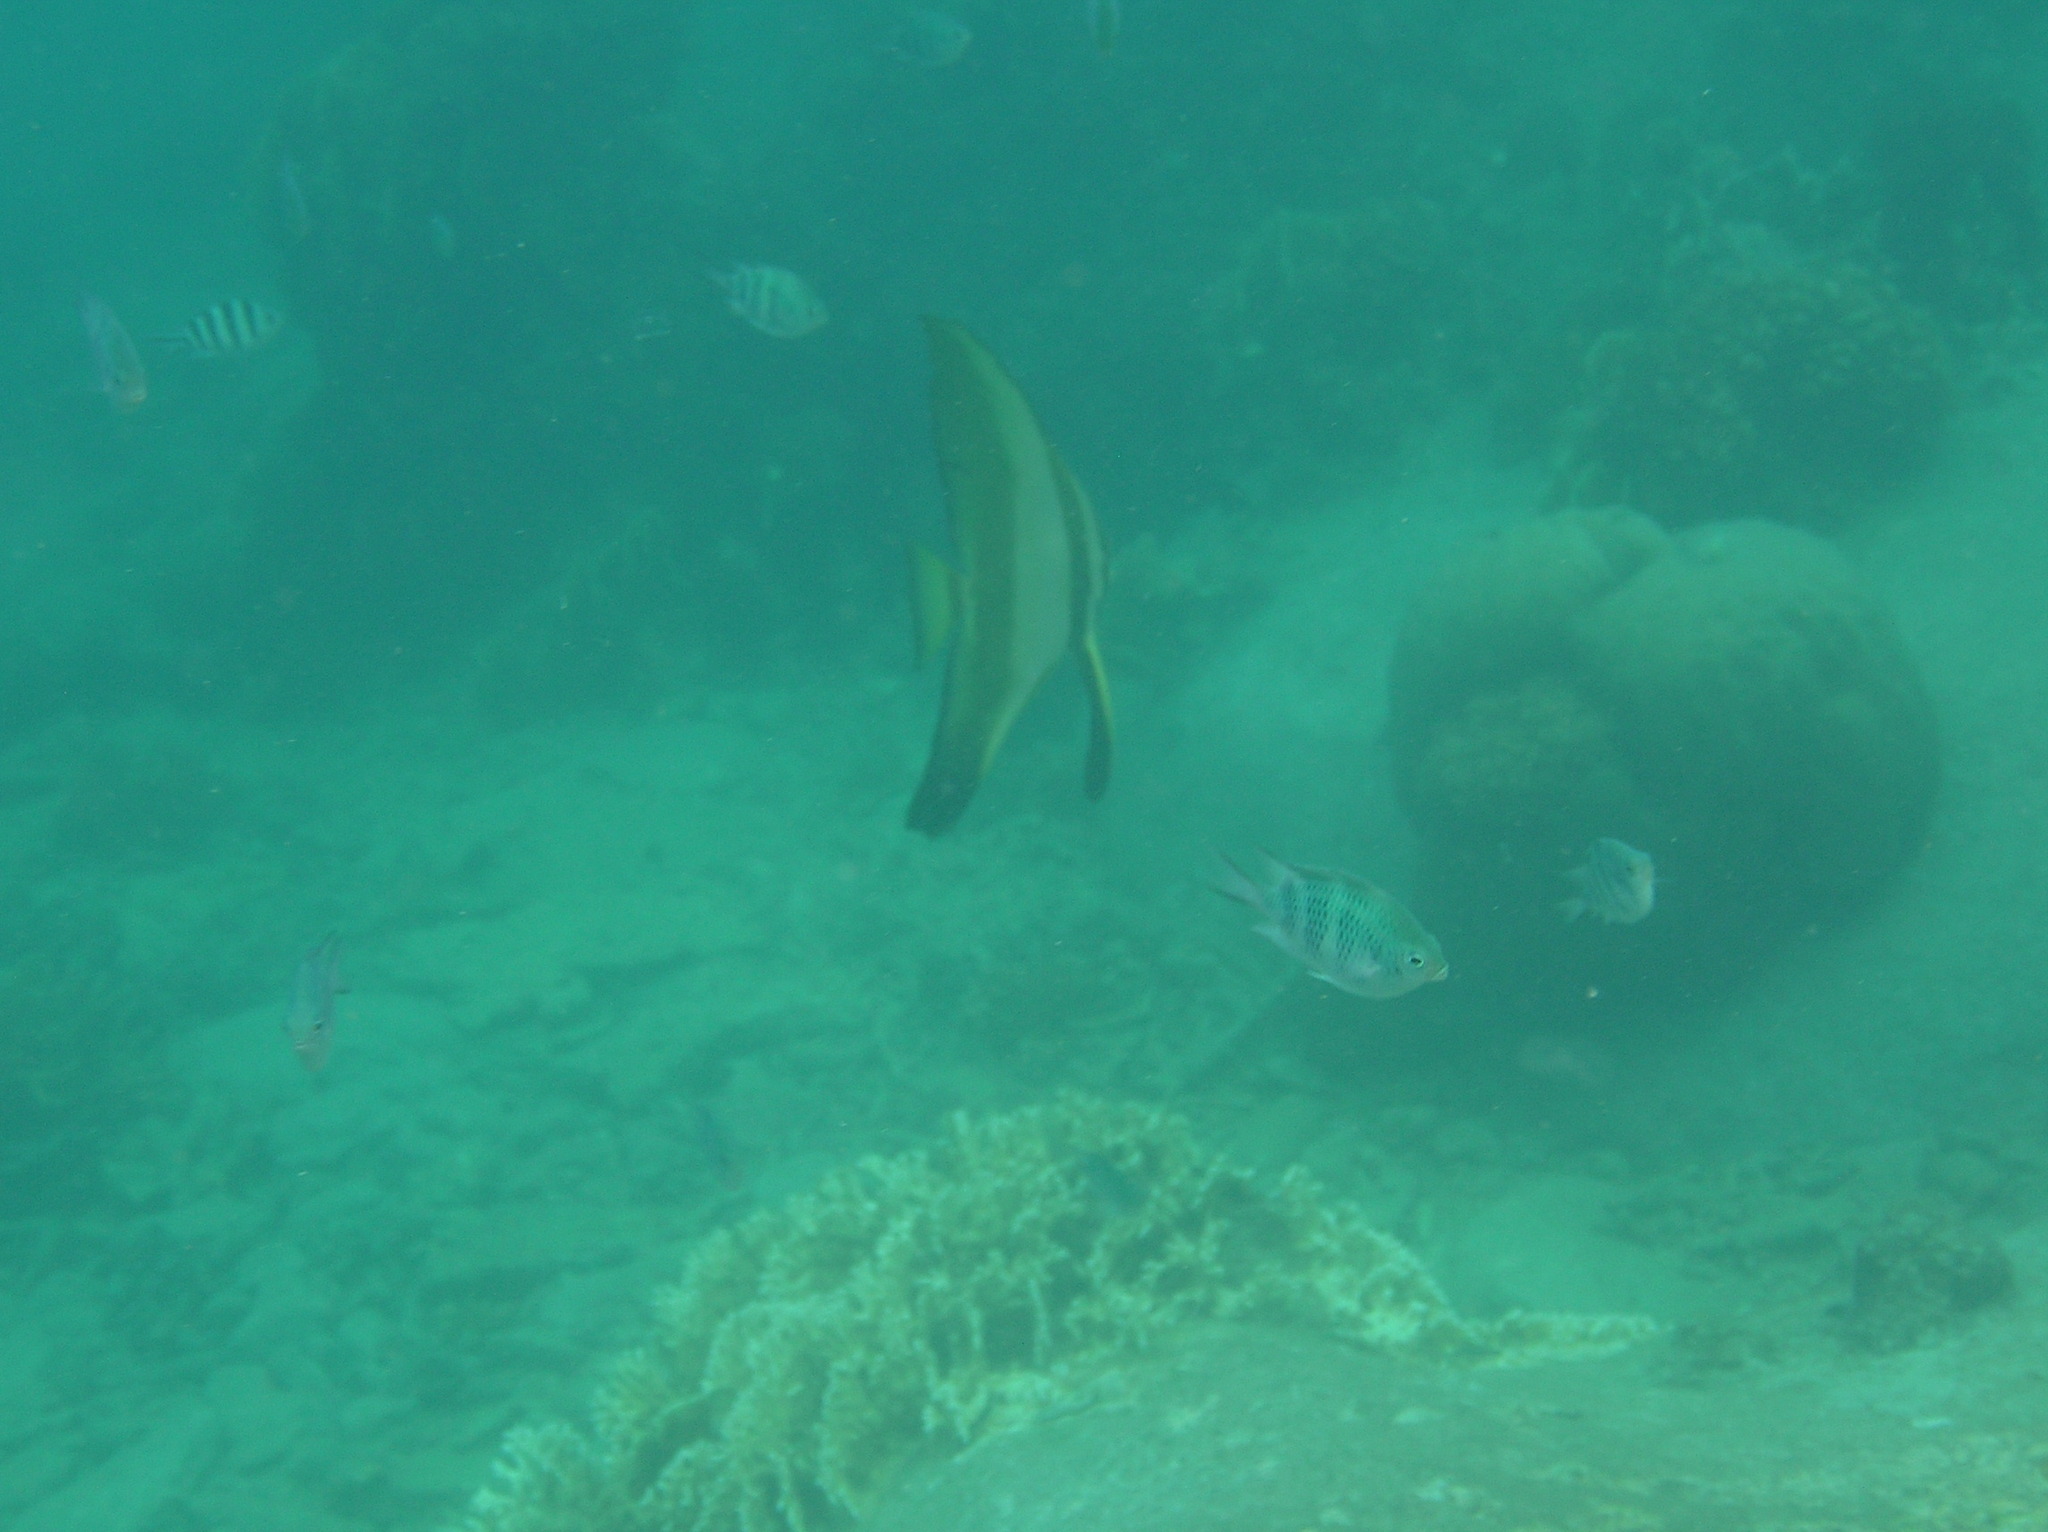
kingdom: Animalia
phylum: Chordata
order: Perciformes
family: Pomacentridae
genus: Amblyglyphidodon
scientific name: Amblyglyphidodon curacao
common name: Staghorn damsel
